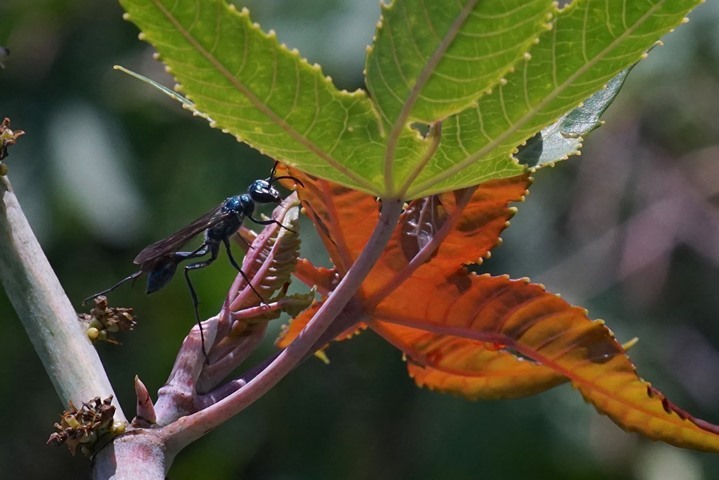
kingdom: Animalia
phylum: Arthropoda
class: Insecta
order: Hymenoptera
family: Sphecidae
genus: Chalybion
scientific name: Chalybion zimmermanni
